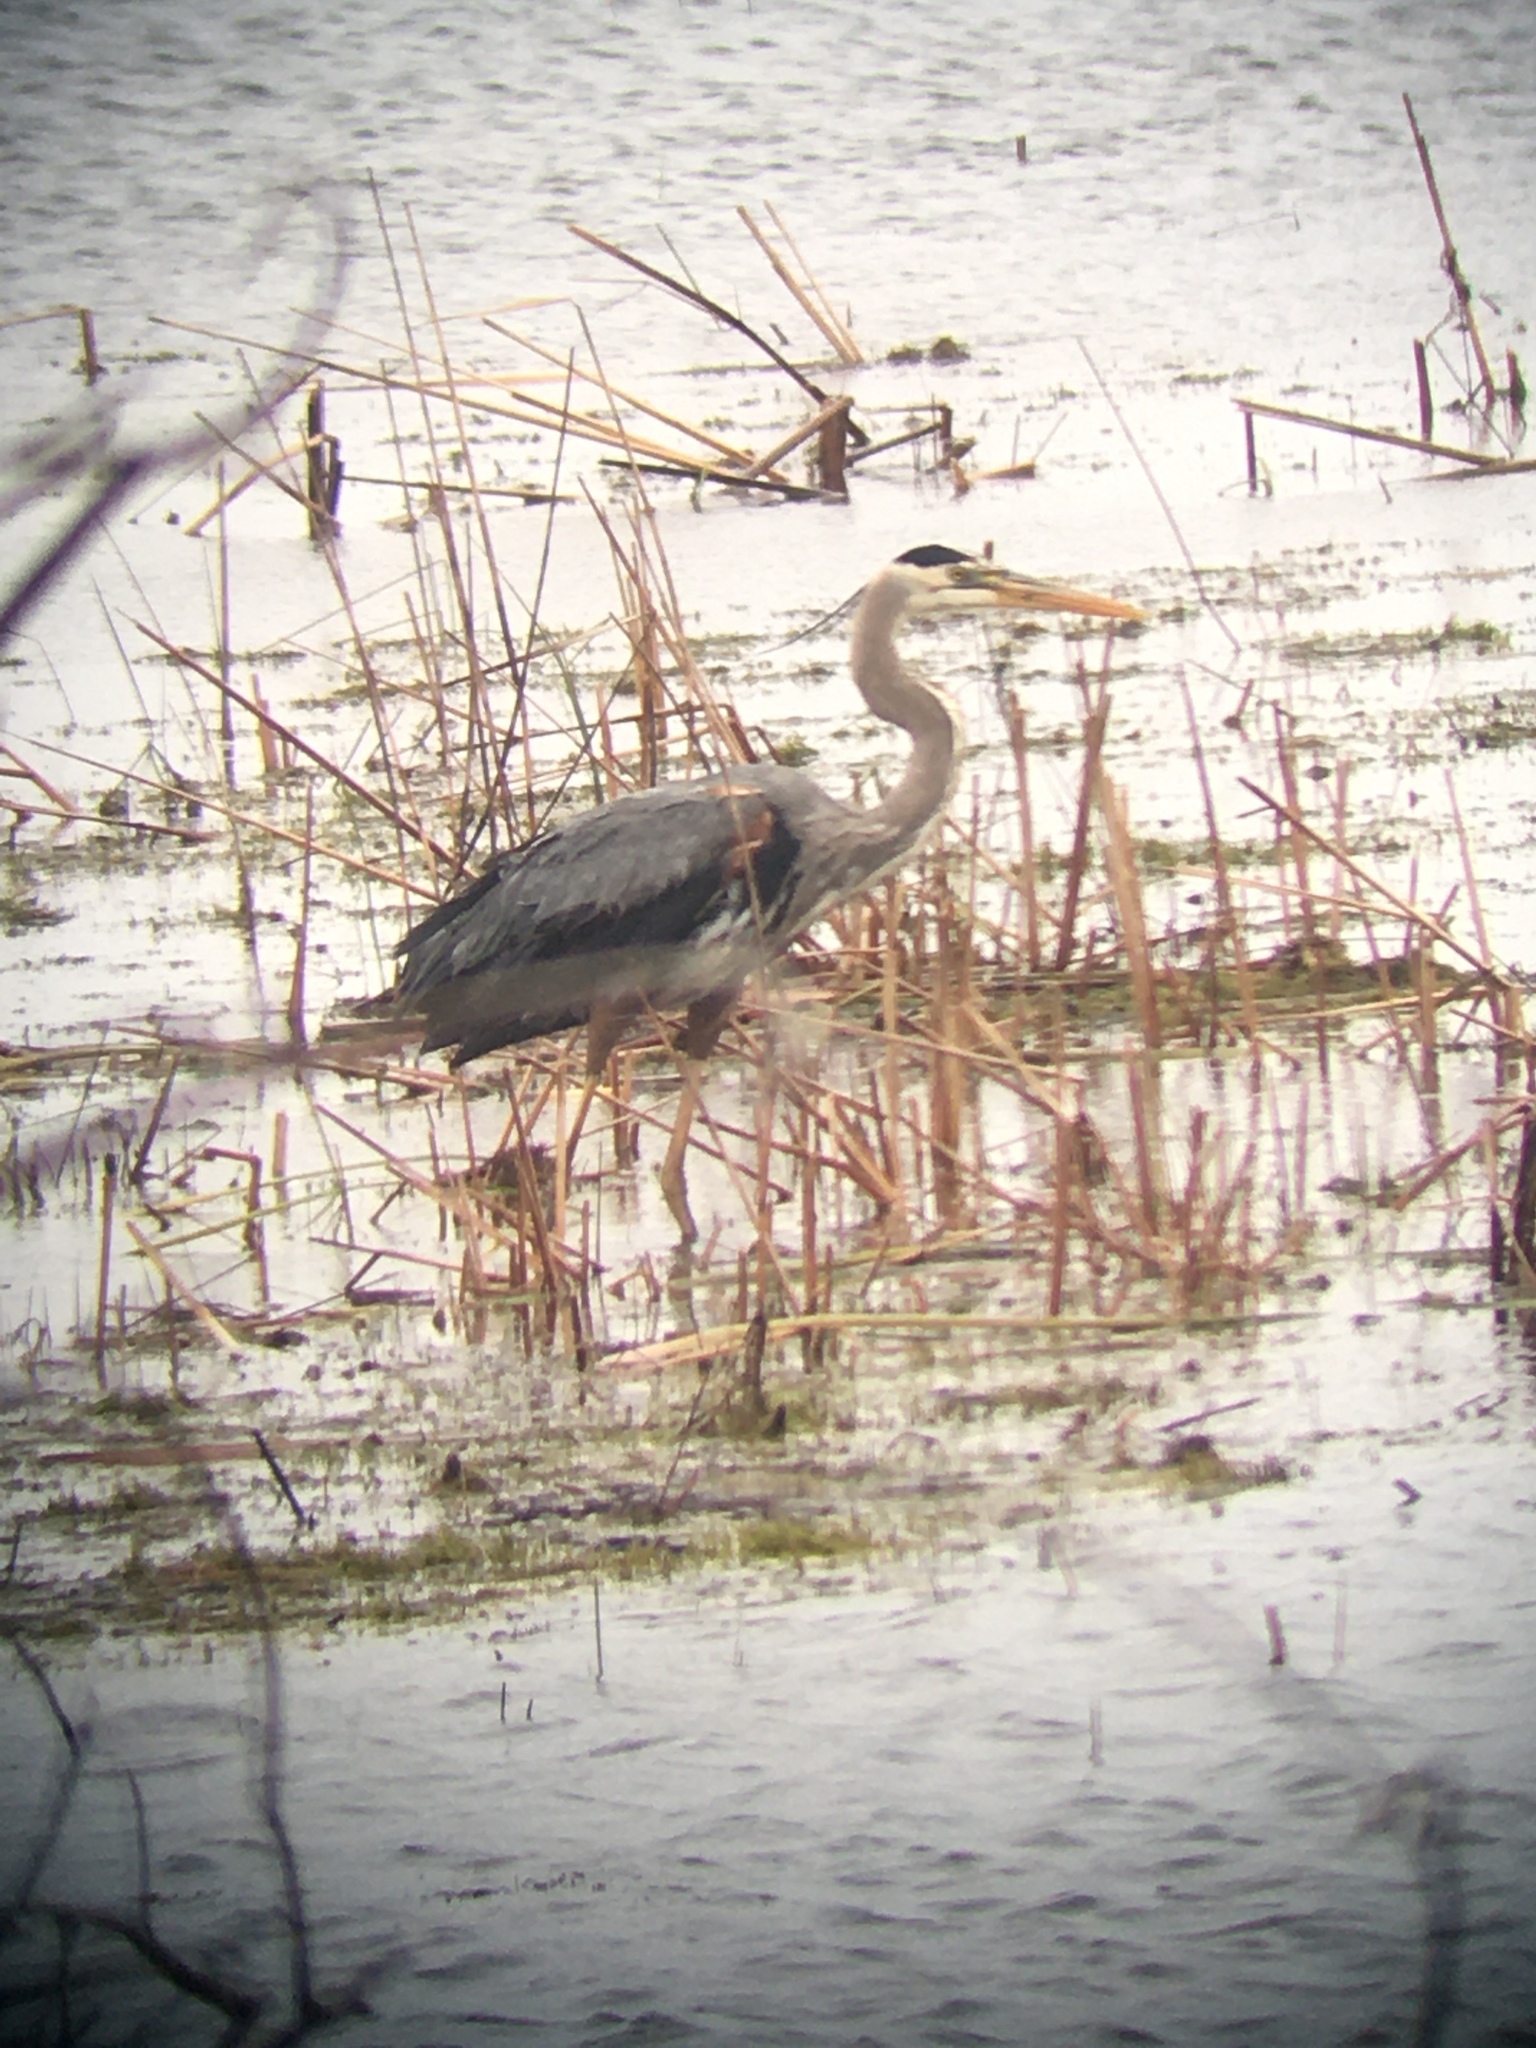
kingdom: Animalia
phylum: Chordata
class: Aves
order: Pelecaniformes
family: Ardeidae
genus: Ardea
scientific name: Ardea herodias
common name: Great blue heron
